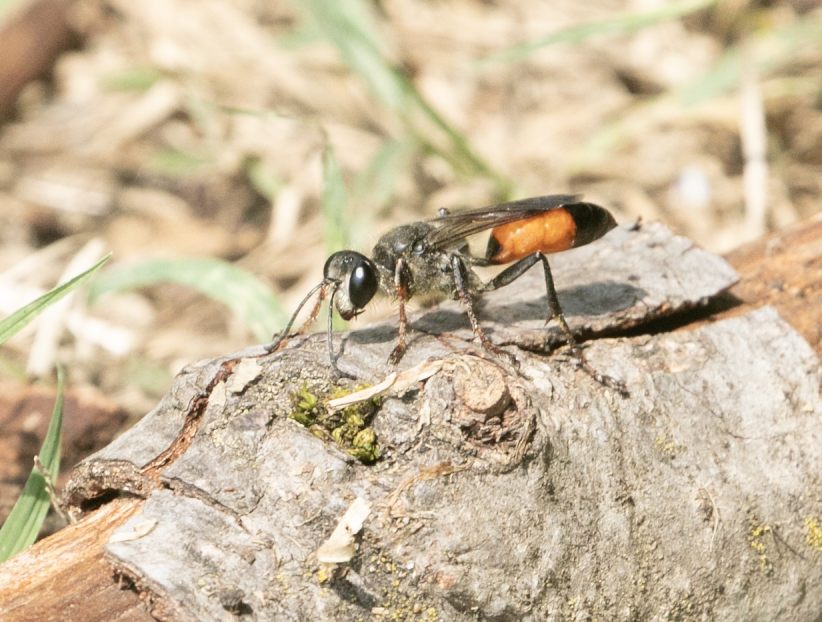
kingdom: Animalia
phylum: Arthropoda
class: Insecta
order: Hymenoptera
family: Sphecidae
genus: Sphex
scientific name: Sphex funerarius
